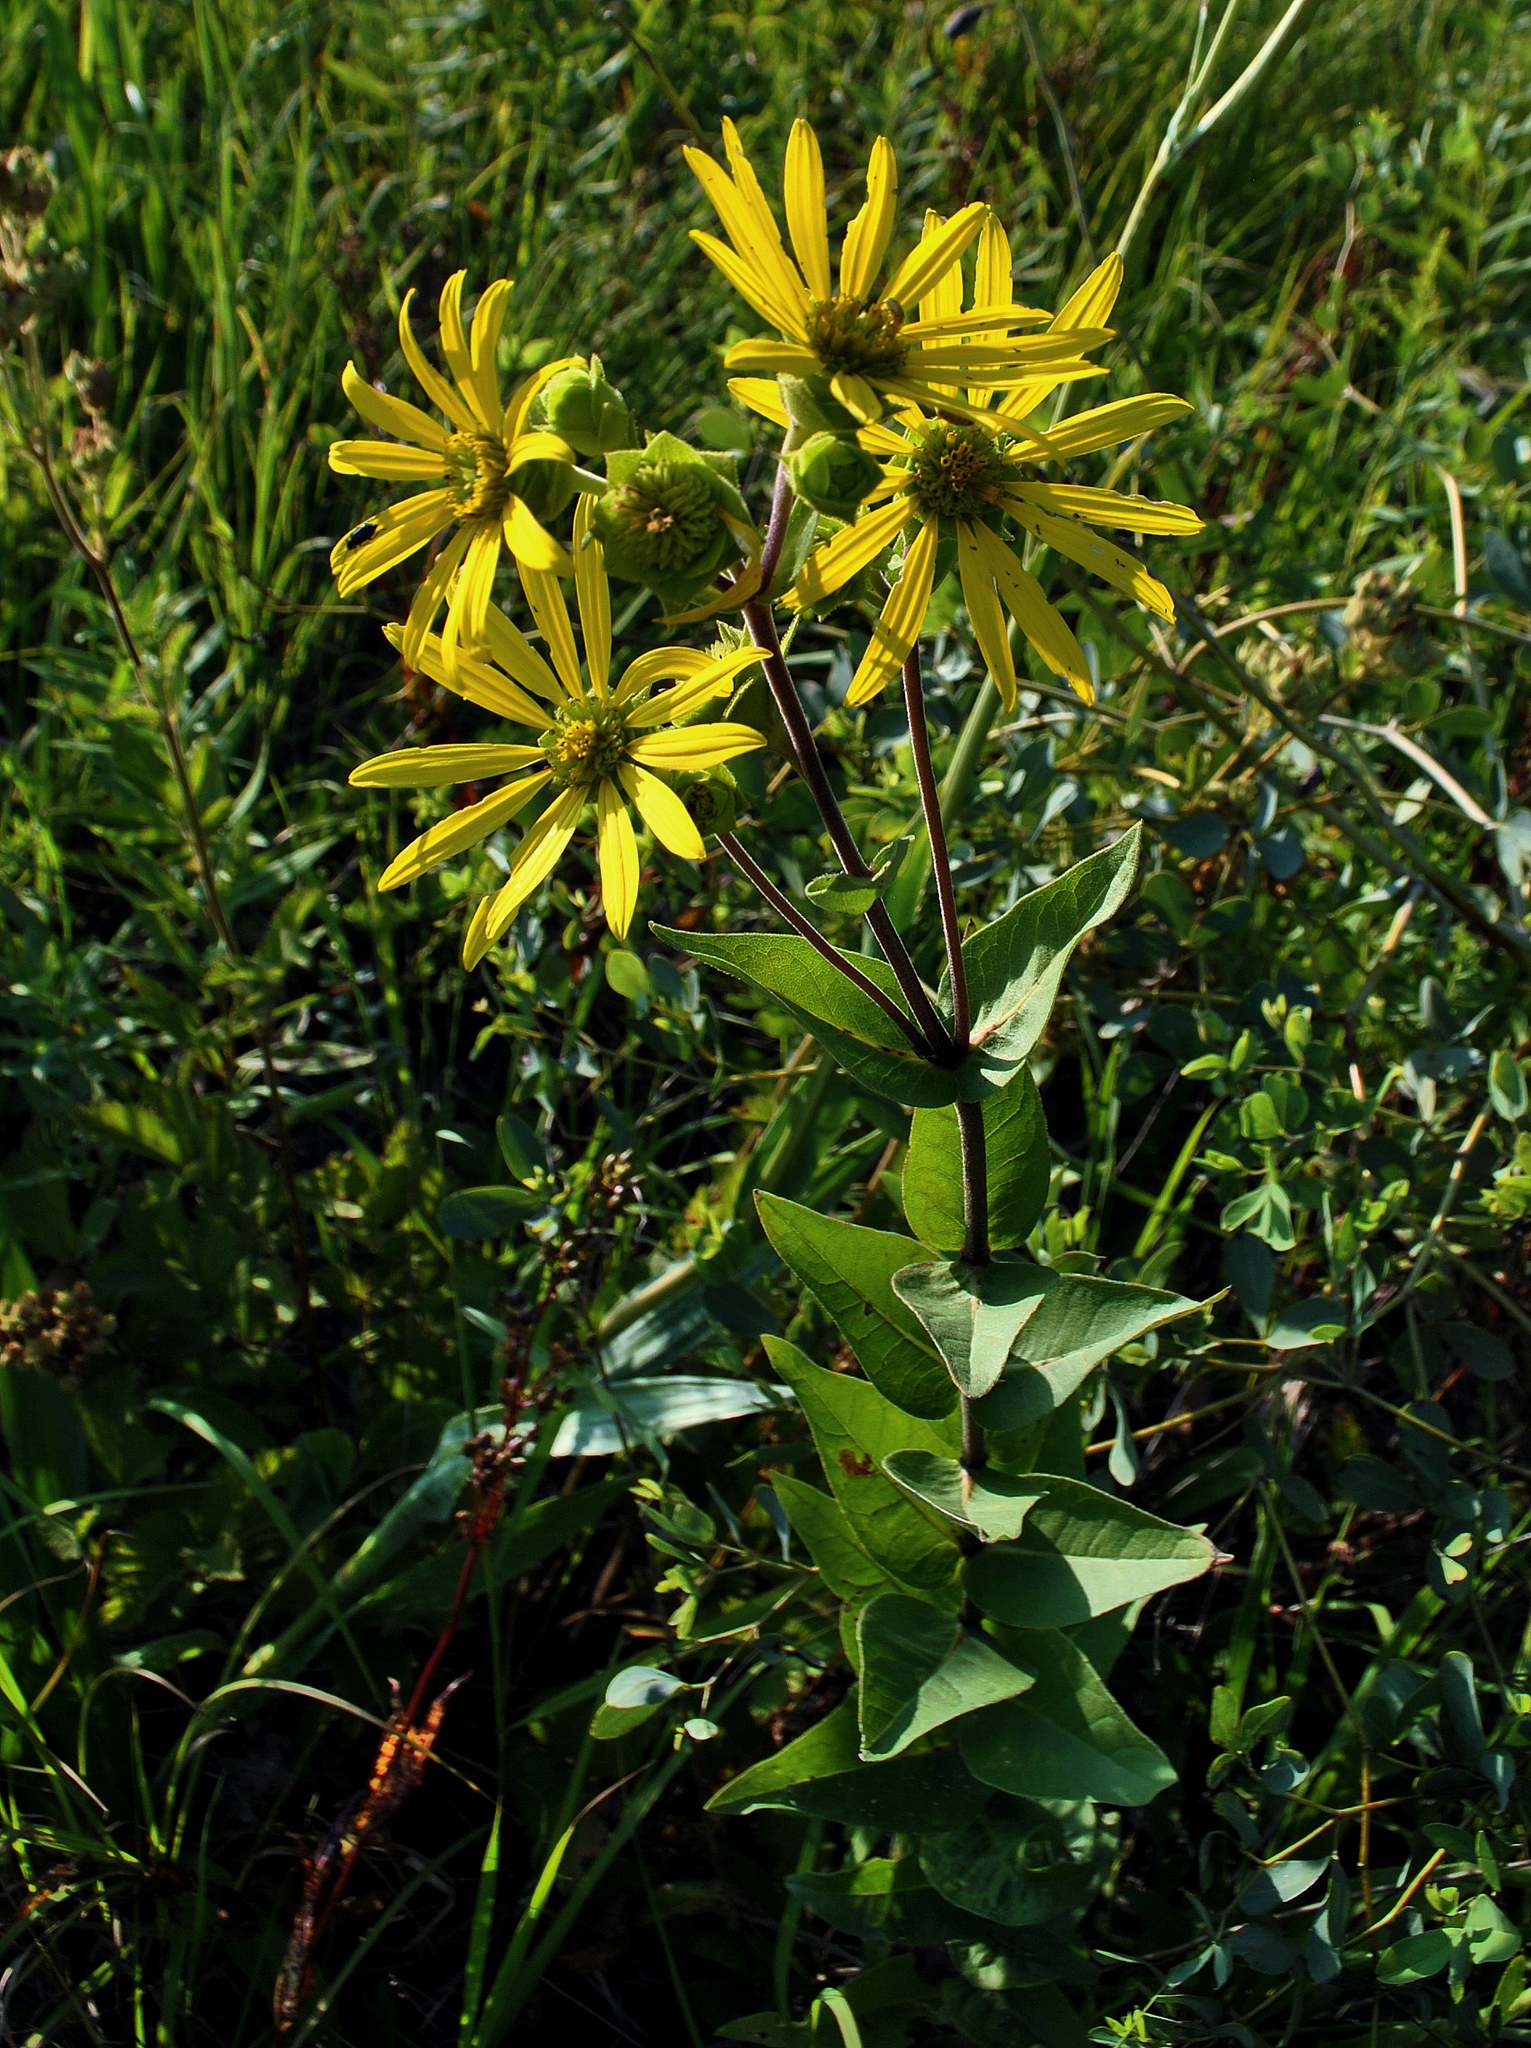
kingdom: Plantae
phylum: Tracheophyta
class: Magnoliopsida
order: Asterales
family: Asteraceae
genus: Silphium
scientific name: Silphium integrifolium
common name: Whole-leaf rosinweed
